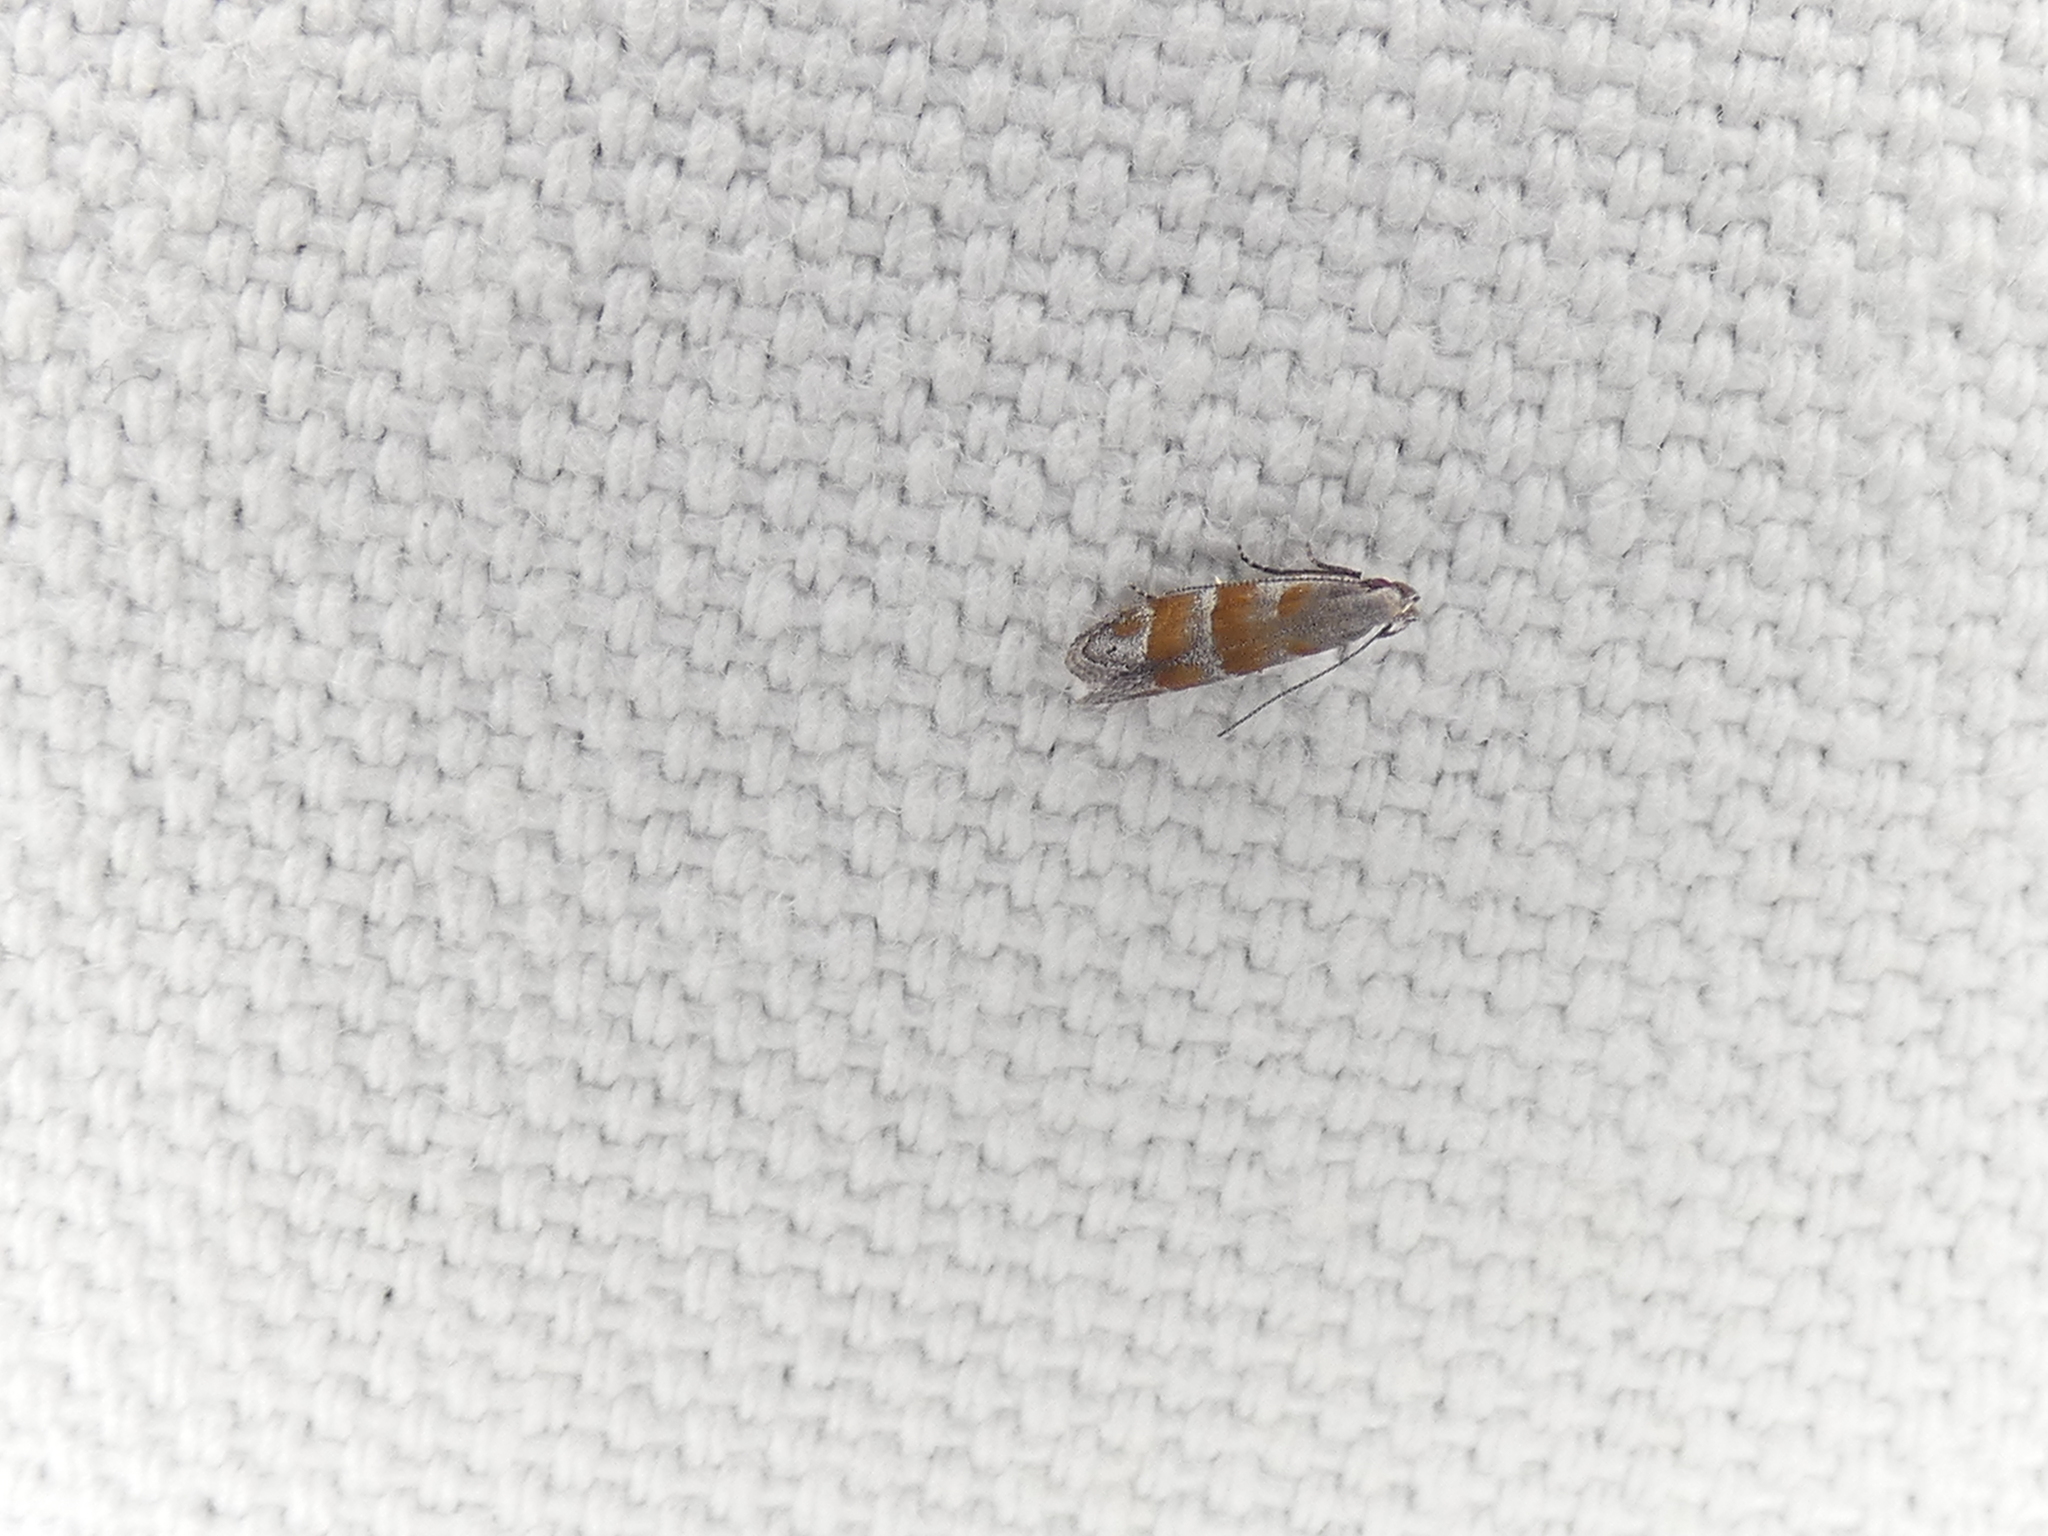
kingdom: Animalia
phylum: Arthropoda
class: Insecta
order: Lepidoptera
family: Gelechiidae
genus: Battaristis
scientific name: Battaristis vittella
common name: Orange stripe-backed moth
